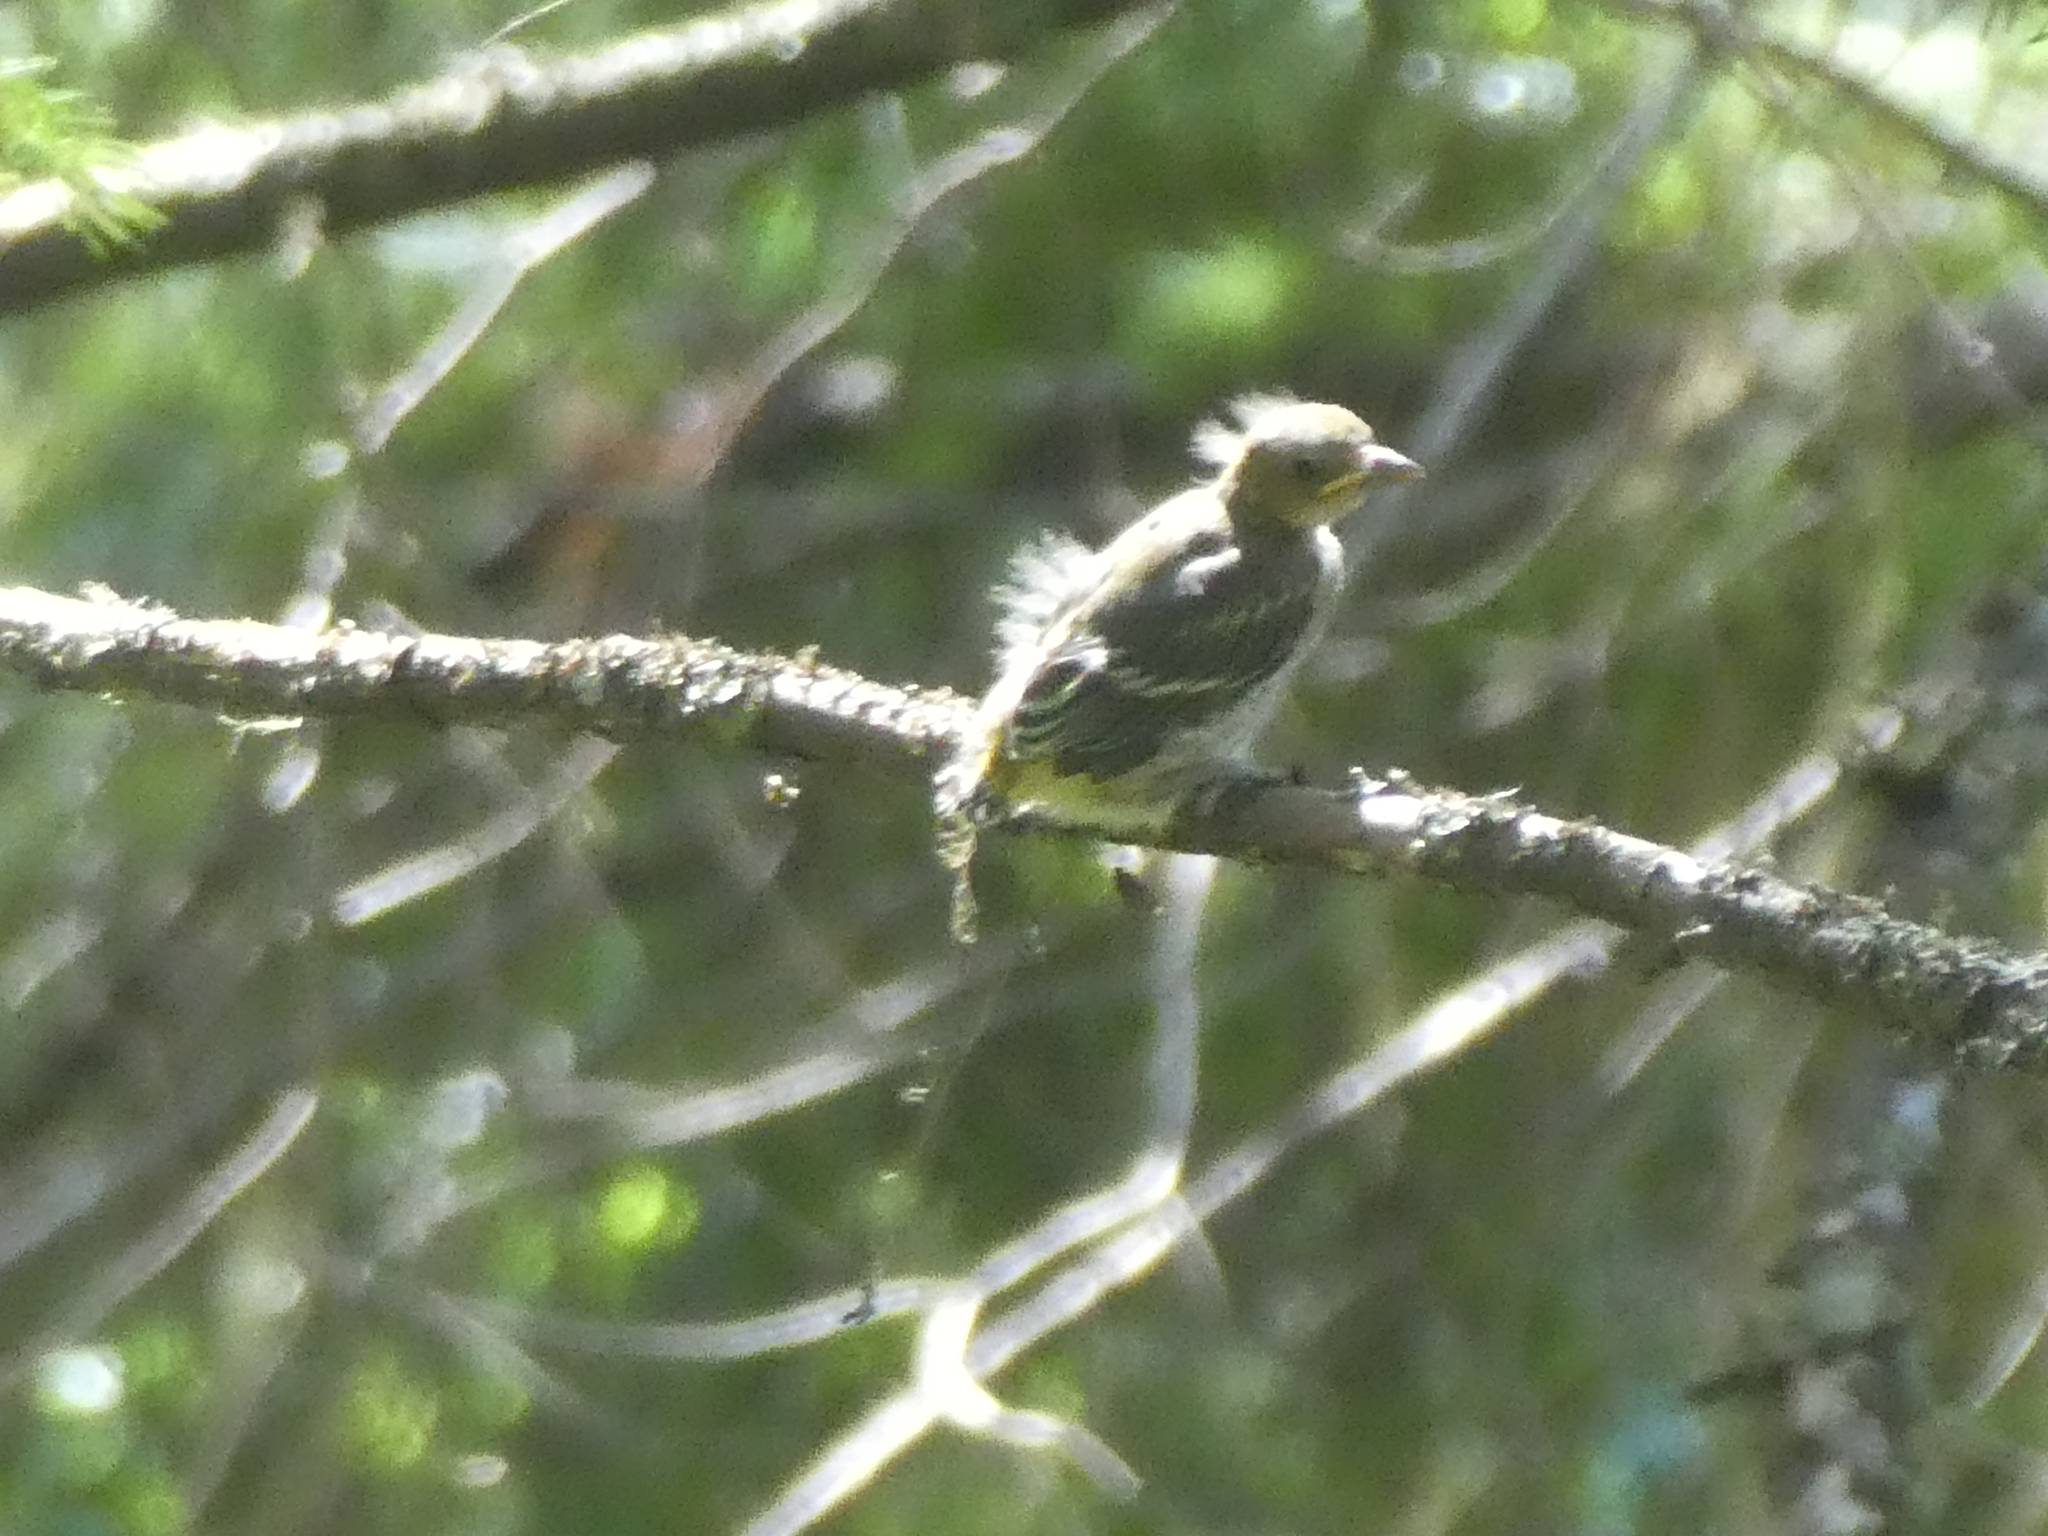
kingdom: Animalia
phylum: Chordata
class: Aves
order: Passeriformes
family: Cardinalidae
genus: Piranga
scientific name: Piranga ludoviciana
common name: Western tanager
